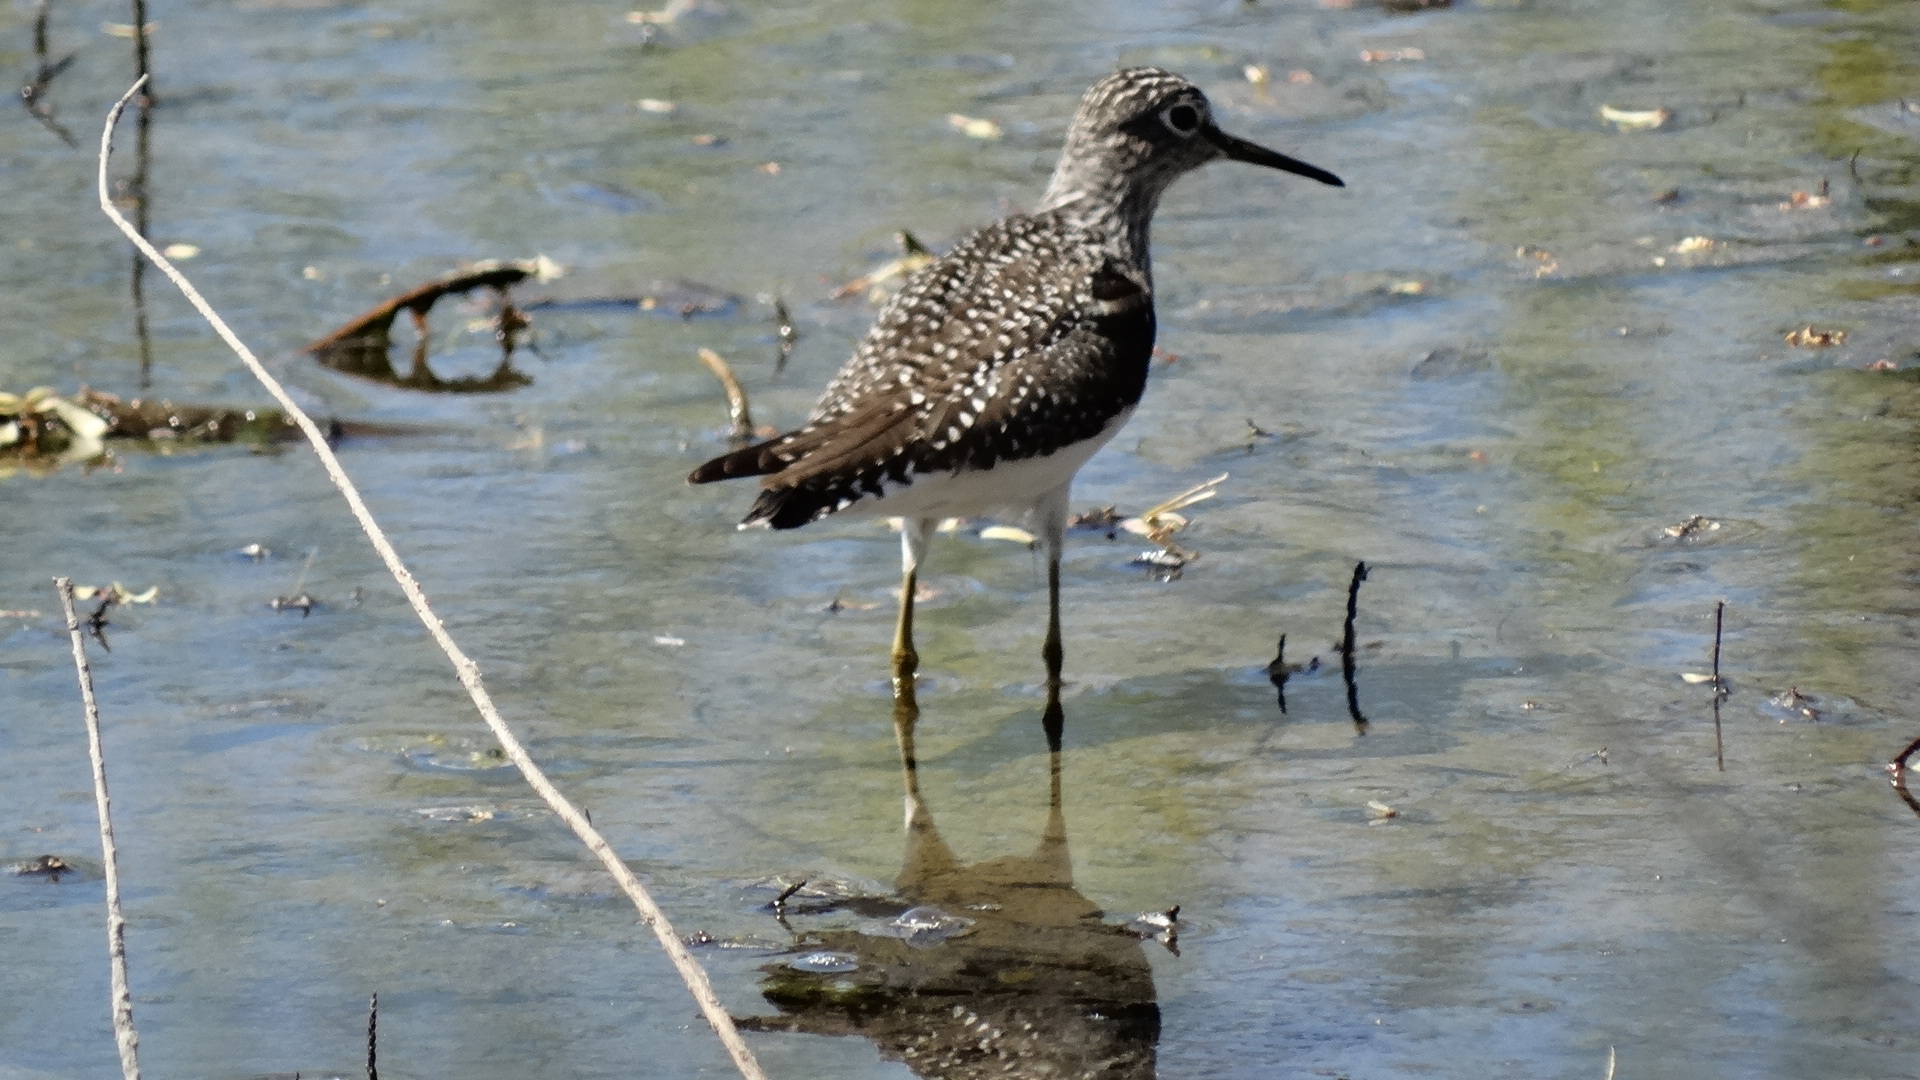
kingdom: Animalia
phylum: Chordata
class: Aves
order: Charadriiformes
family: Scolopacidae
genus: Tringa
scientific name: Tringa solitaria
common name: Solitary sandpiper
